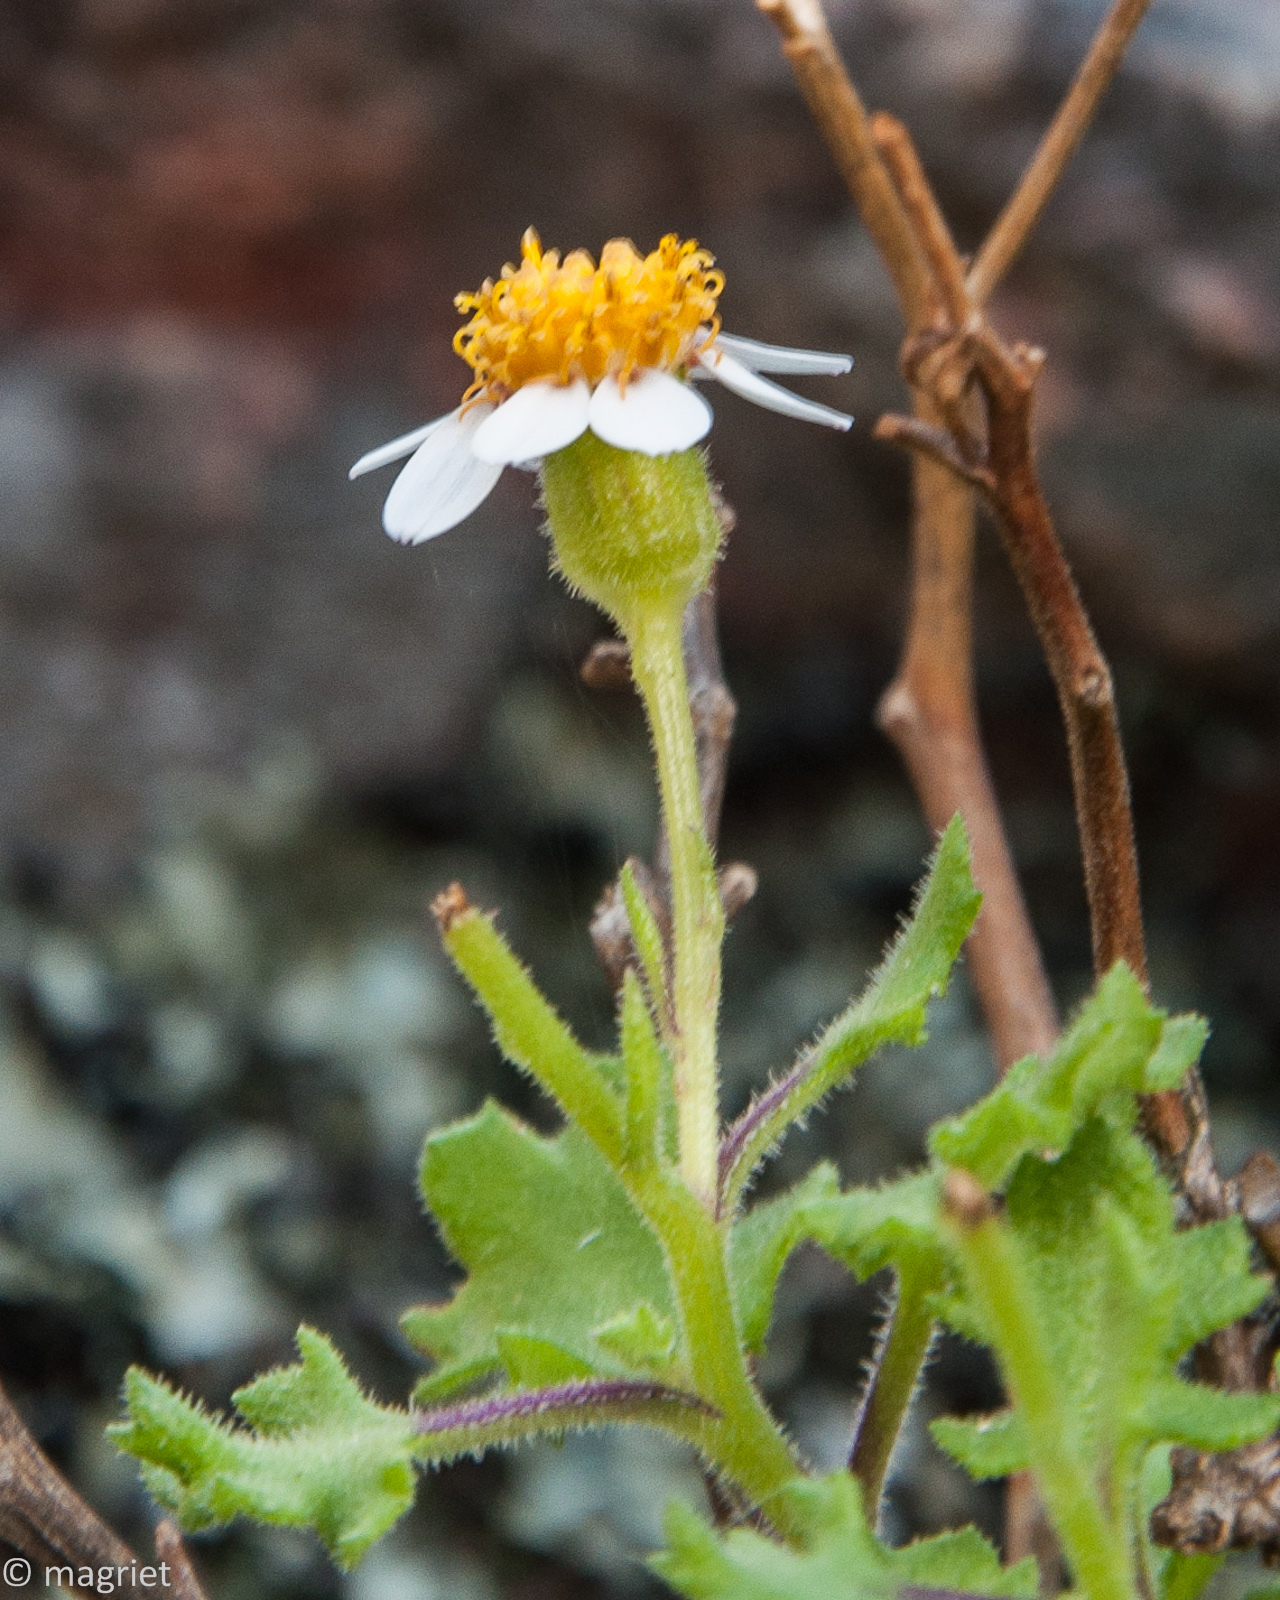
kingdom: Plantae
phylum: Tracheophyta
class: Magnoliopsida
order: Asterales
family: Asteraceae
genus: Senecio
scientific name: Senecio tortuosus
